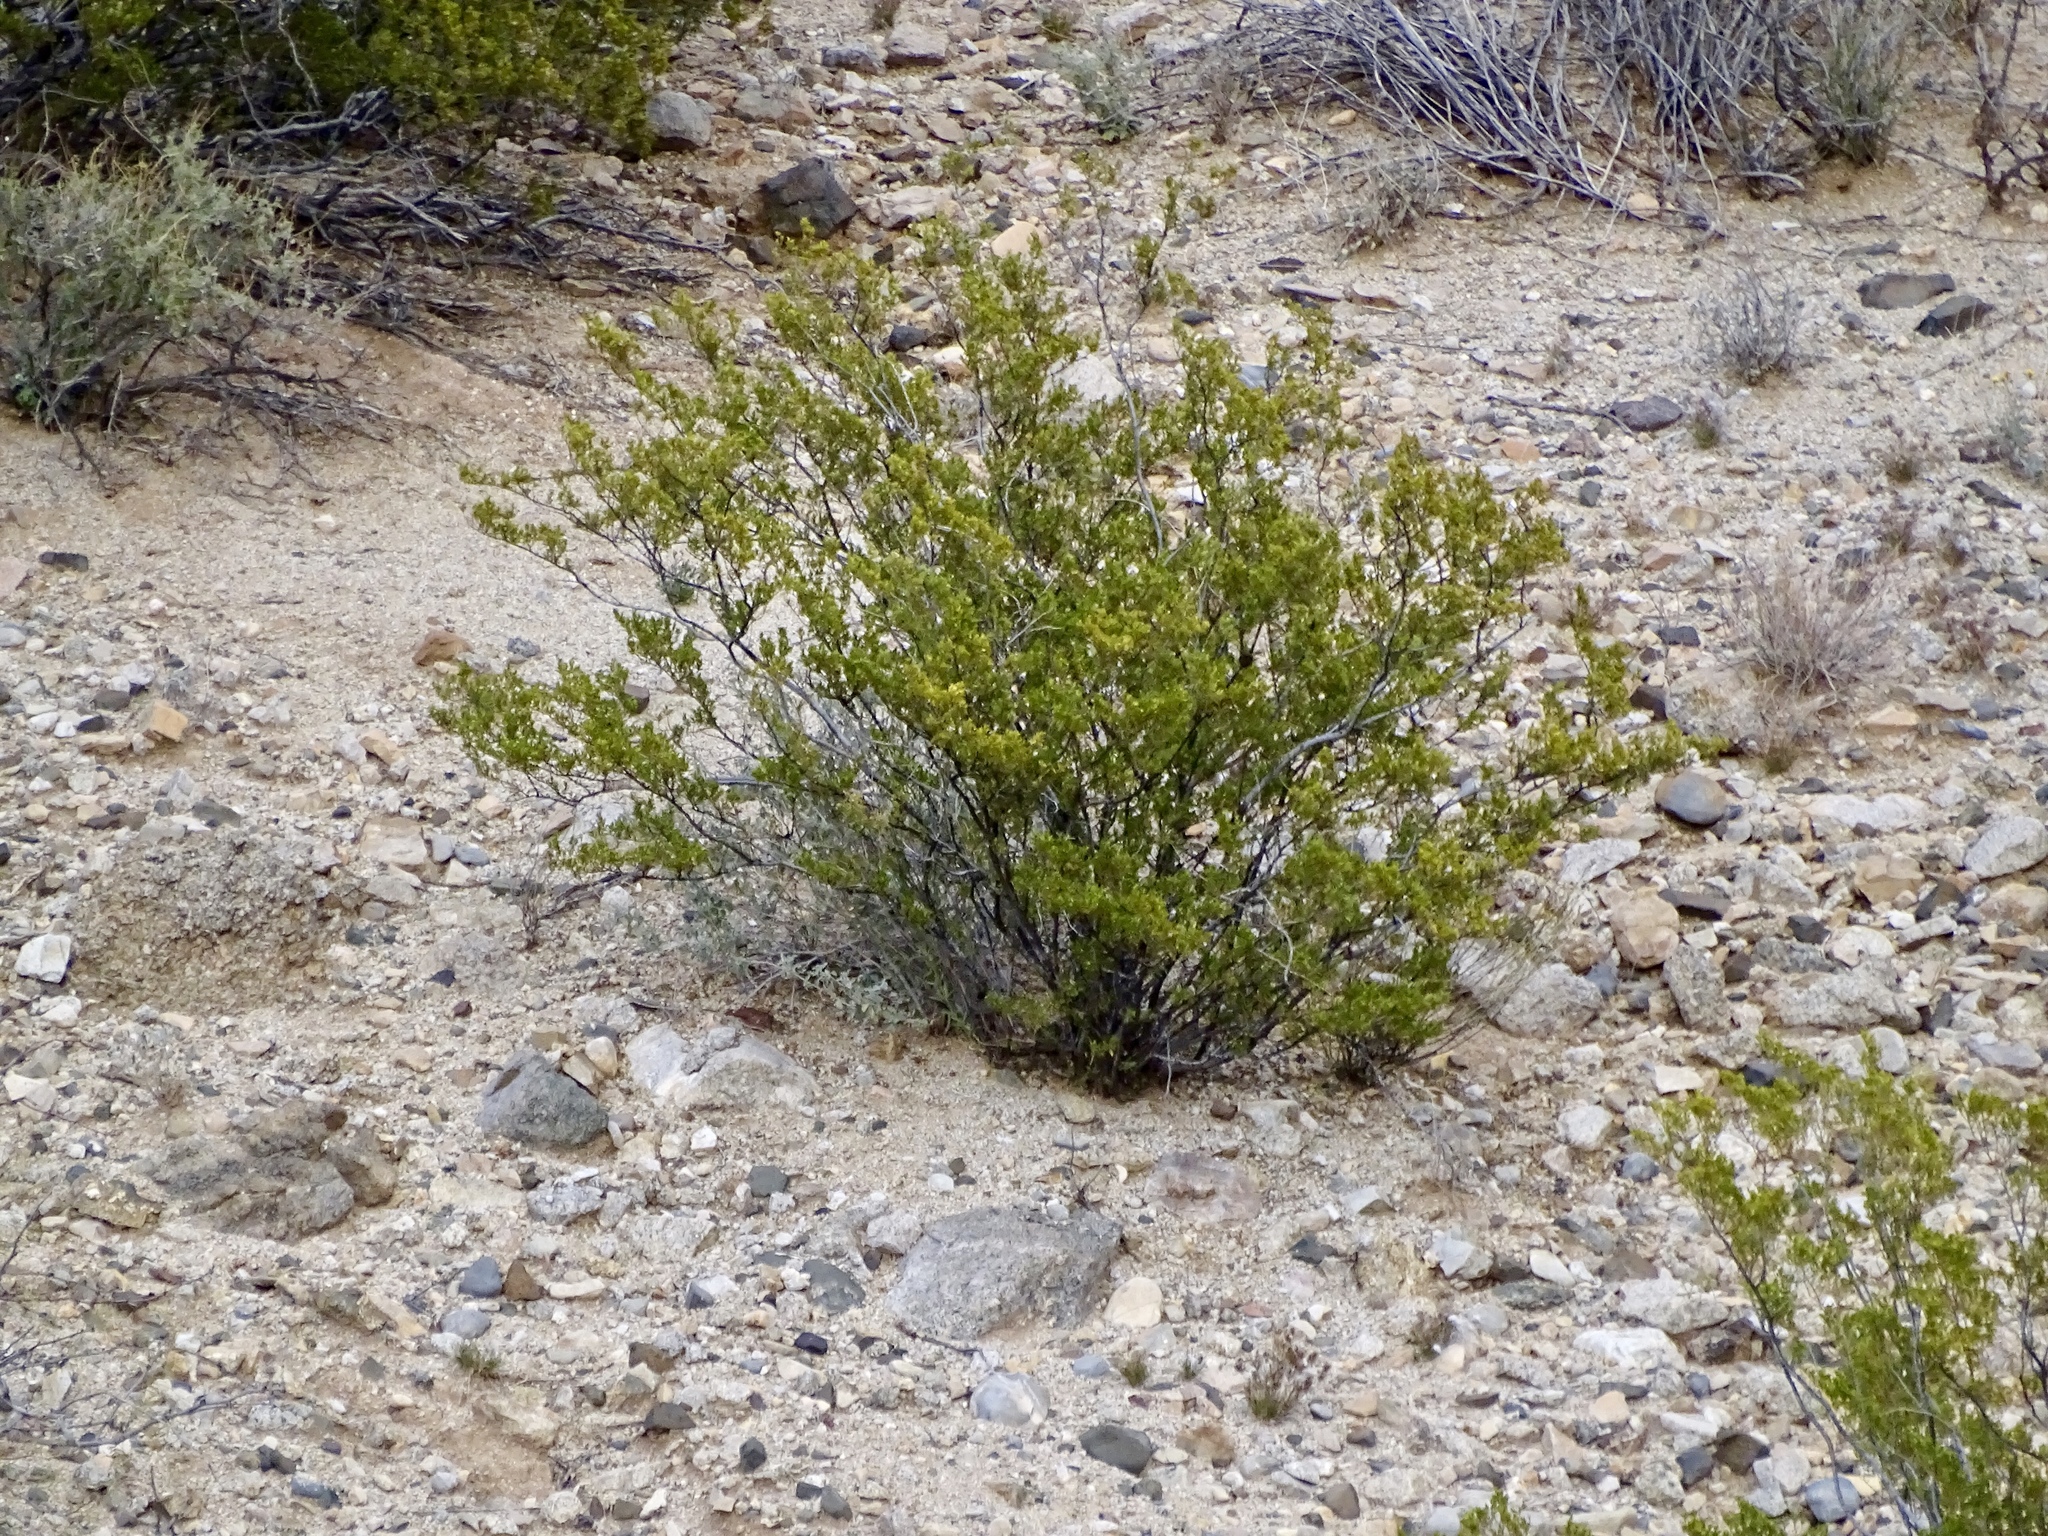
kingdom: Plantae
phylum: Tracheophyta
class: Magnoliopsida
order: Zygophyllales
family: Zygophyllaceae
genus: Larrea
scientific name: Larrea tridentata
